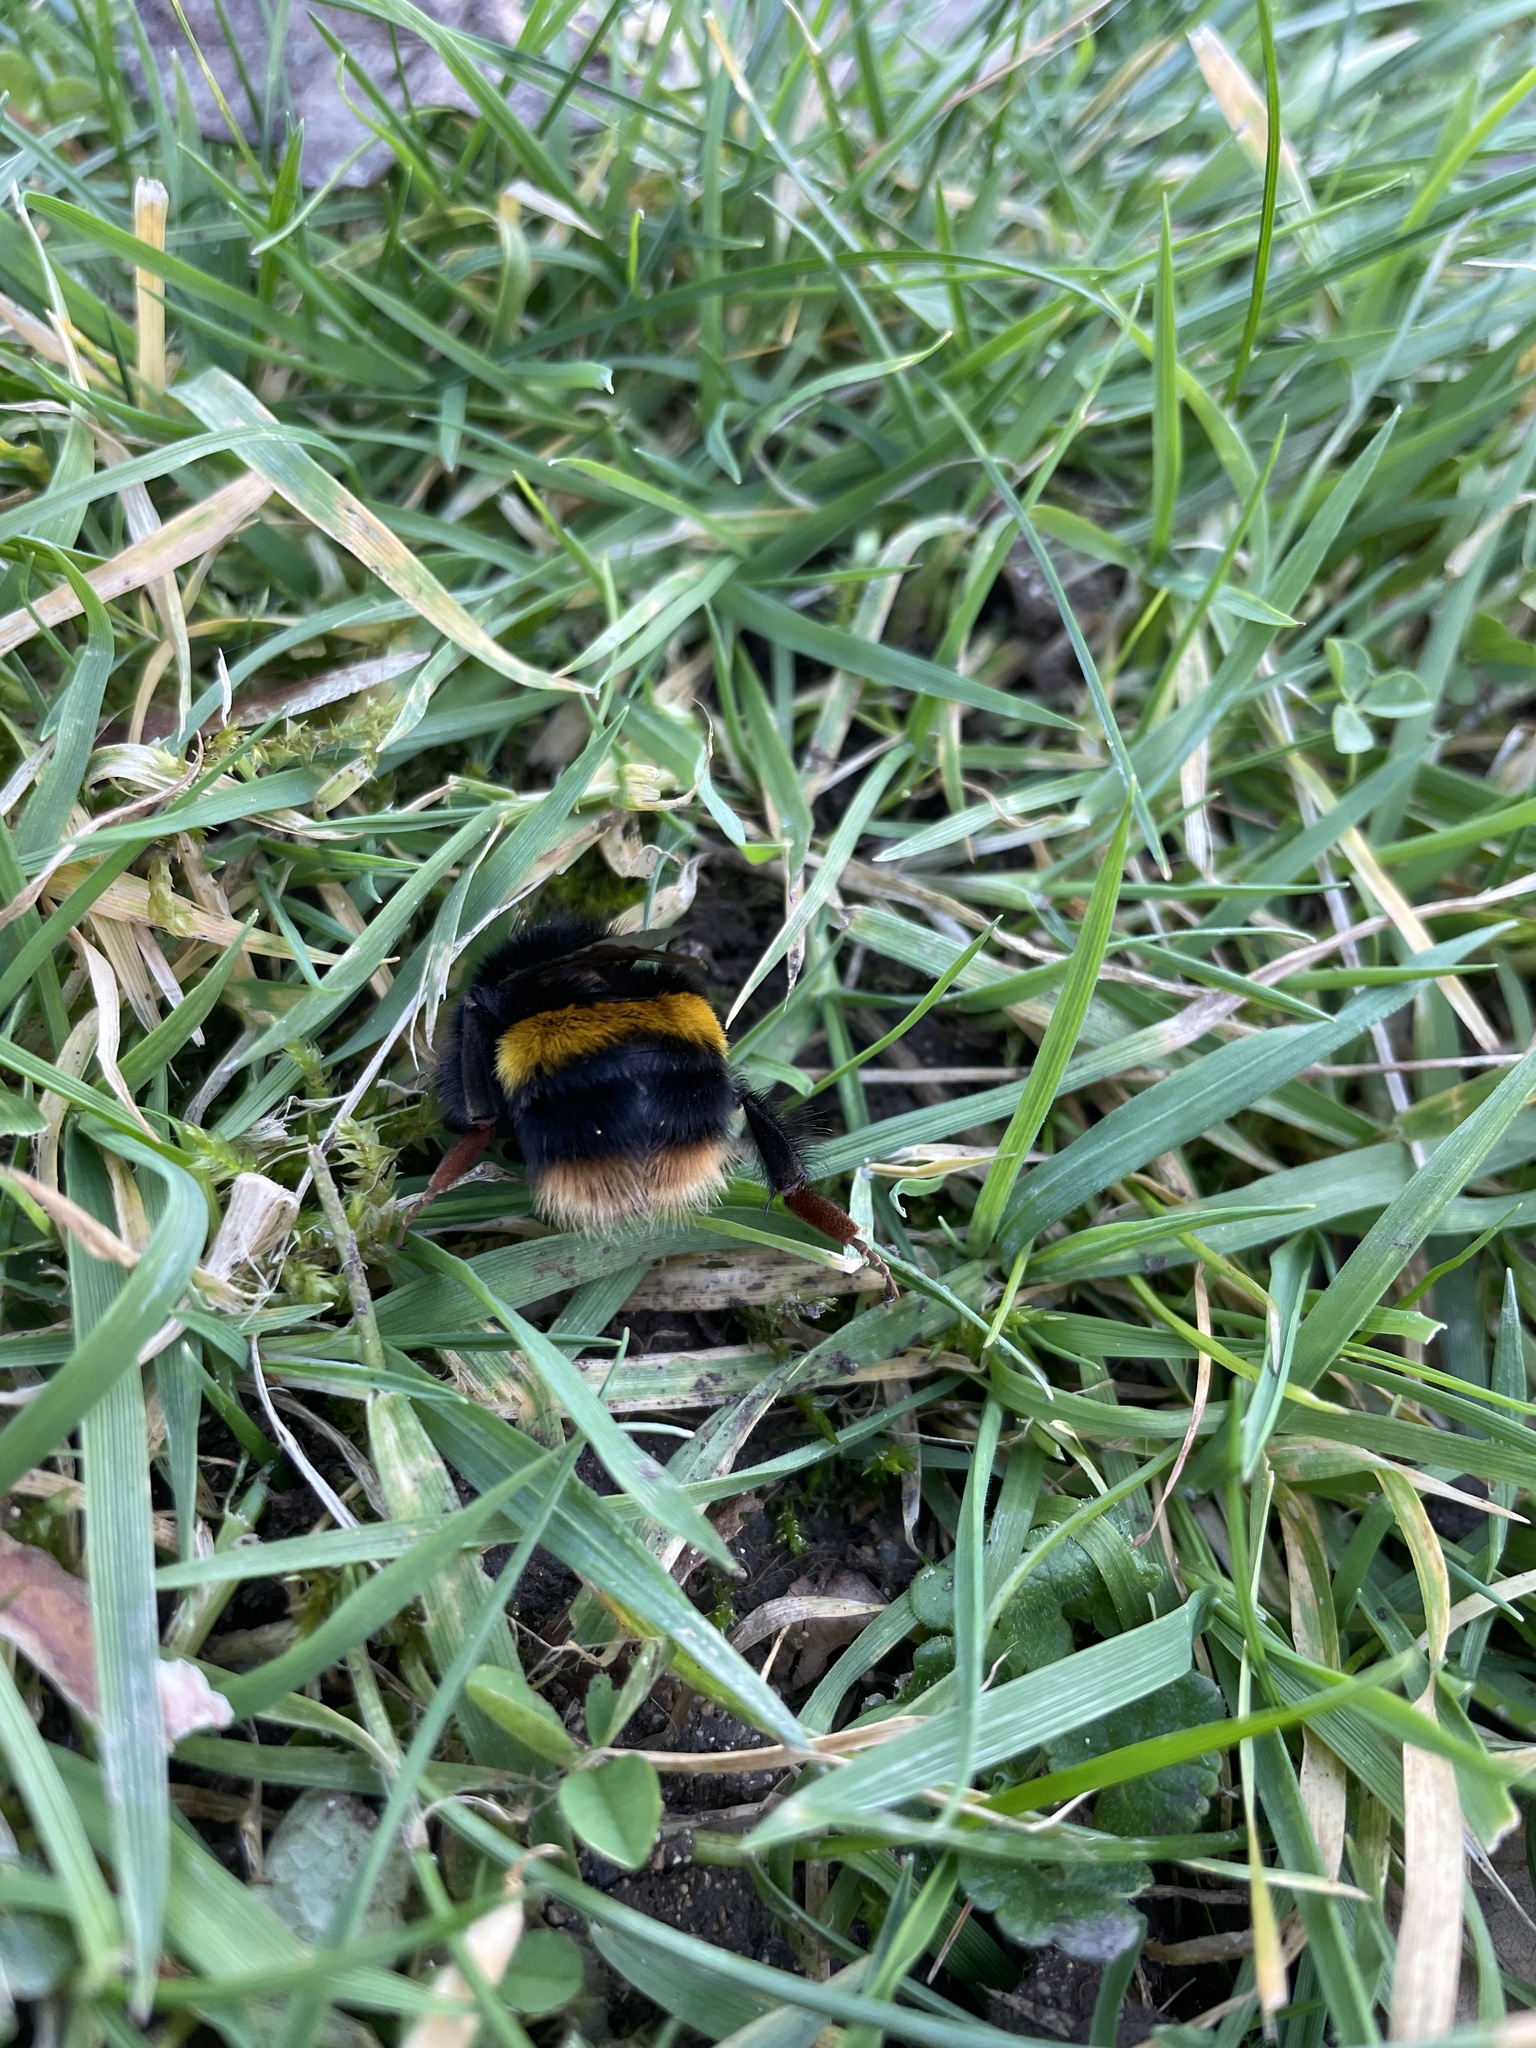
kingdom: Animalia
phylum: Arthropoda
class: Insecta
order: Hymenoptera
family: Apidae
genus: Bombus
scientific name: Bombus terrestris
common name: Buff-tailed bumblebee
